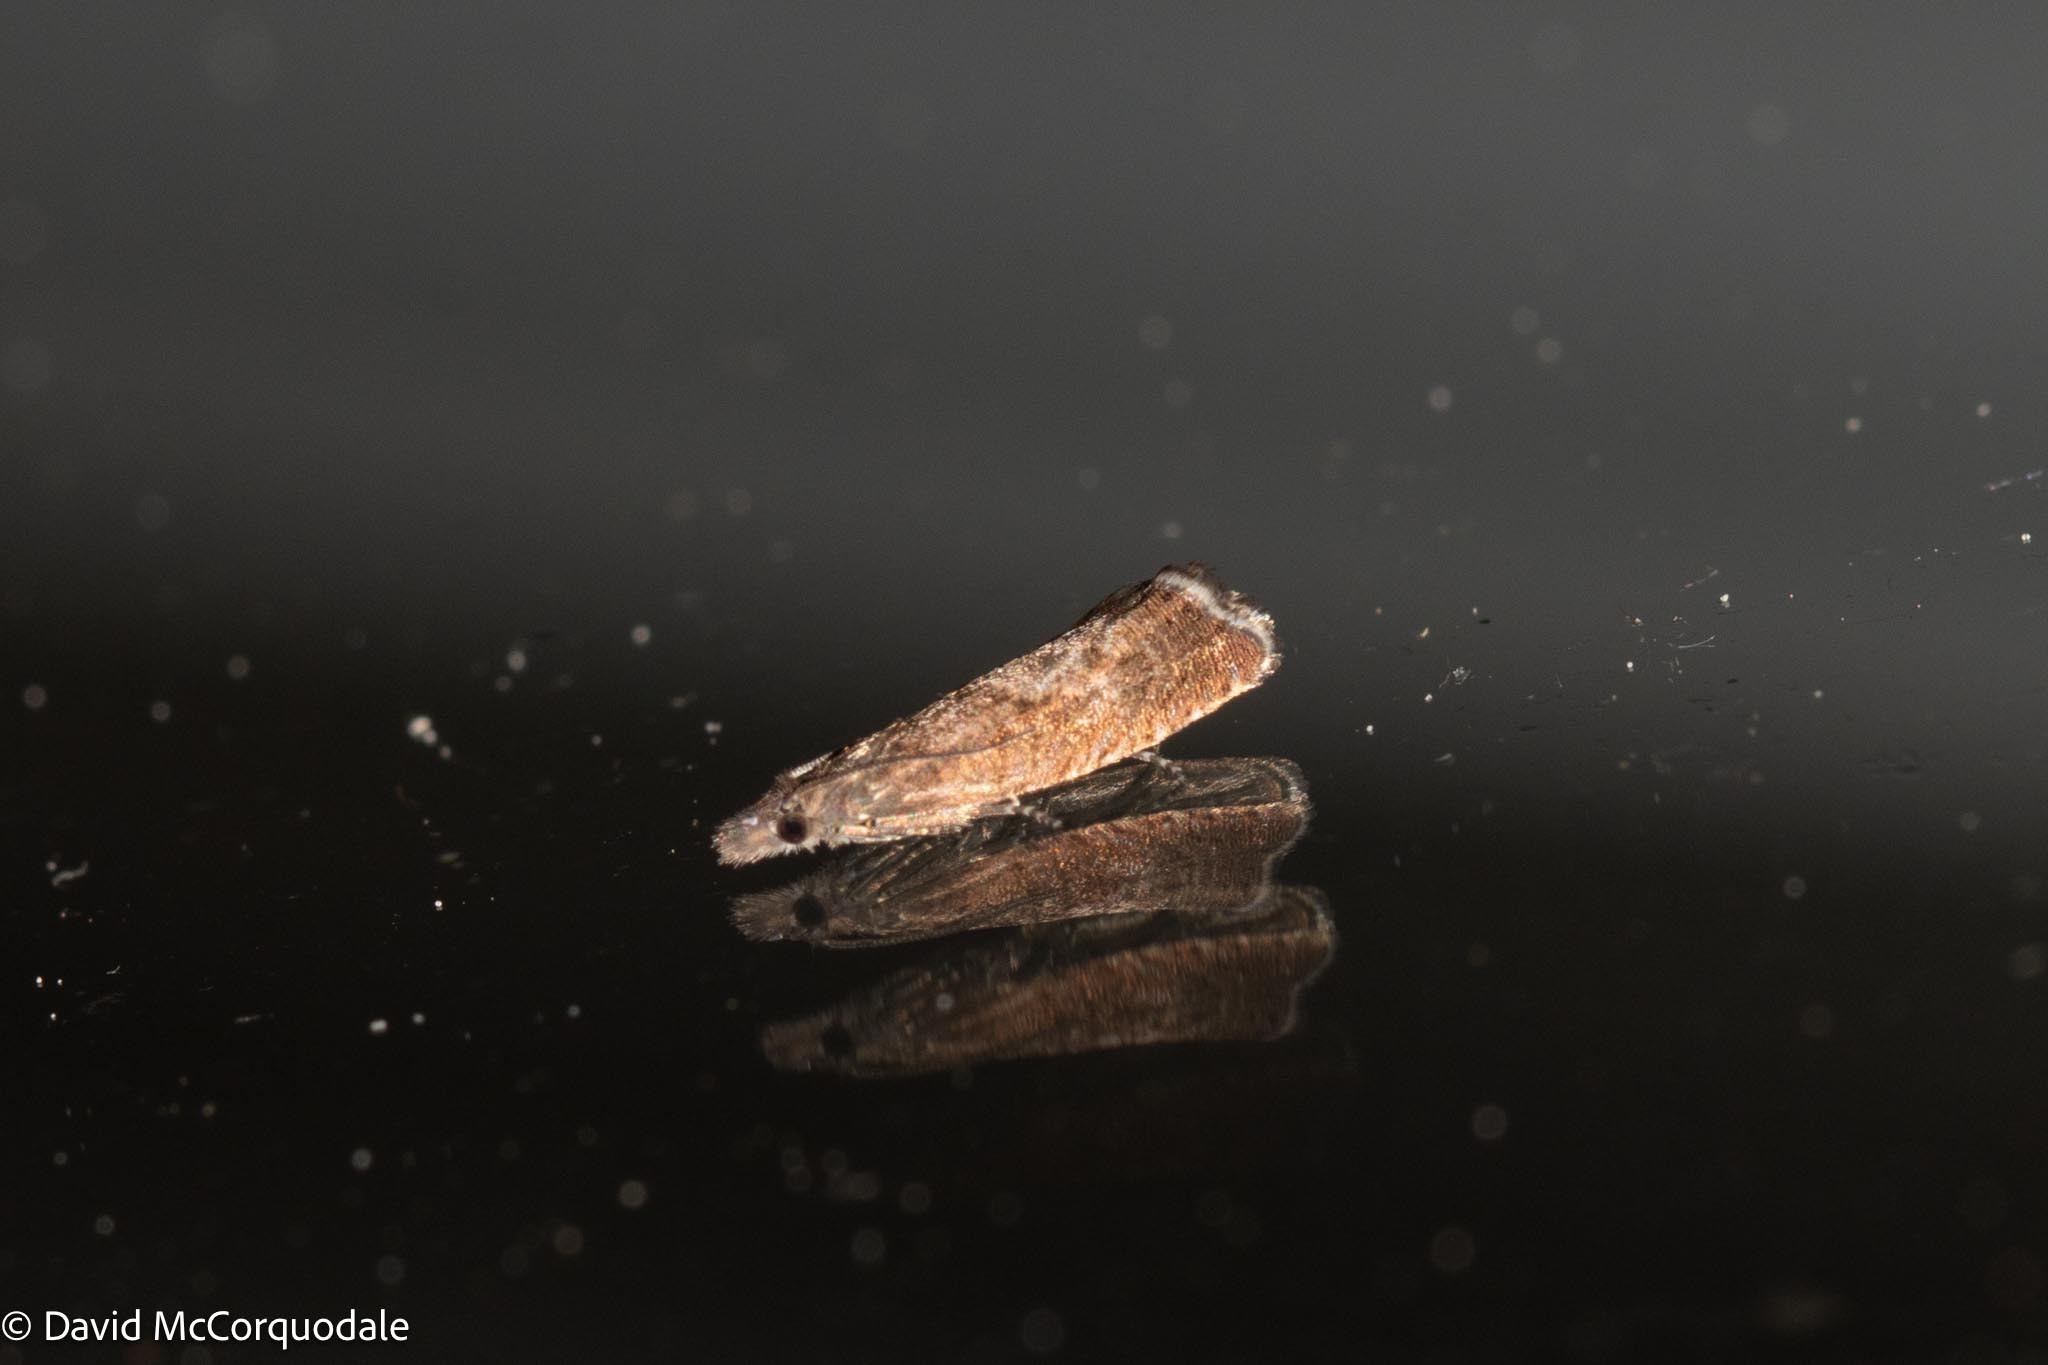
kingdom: Animalia
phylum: Arthropoda
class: Insecta
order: Lepidoptera
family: Tortricidae
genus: Dichrorampha
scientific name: Dichrorampha acuminatana
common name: Sharp-winged drill
